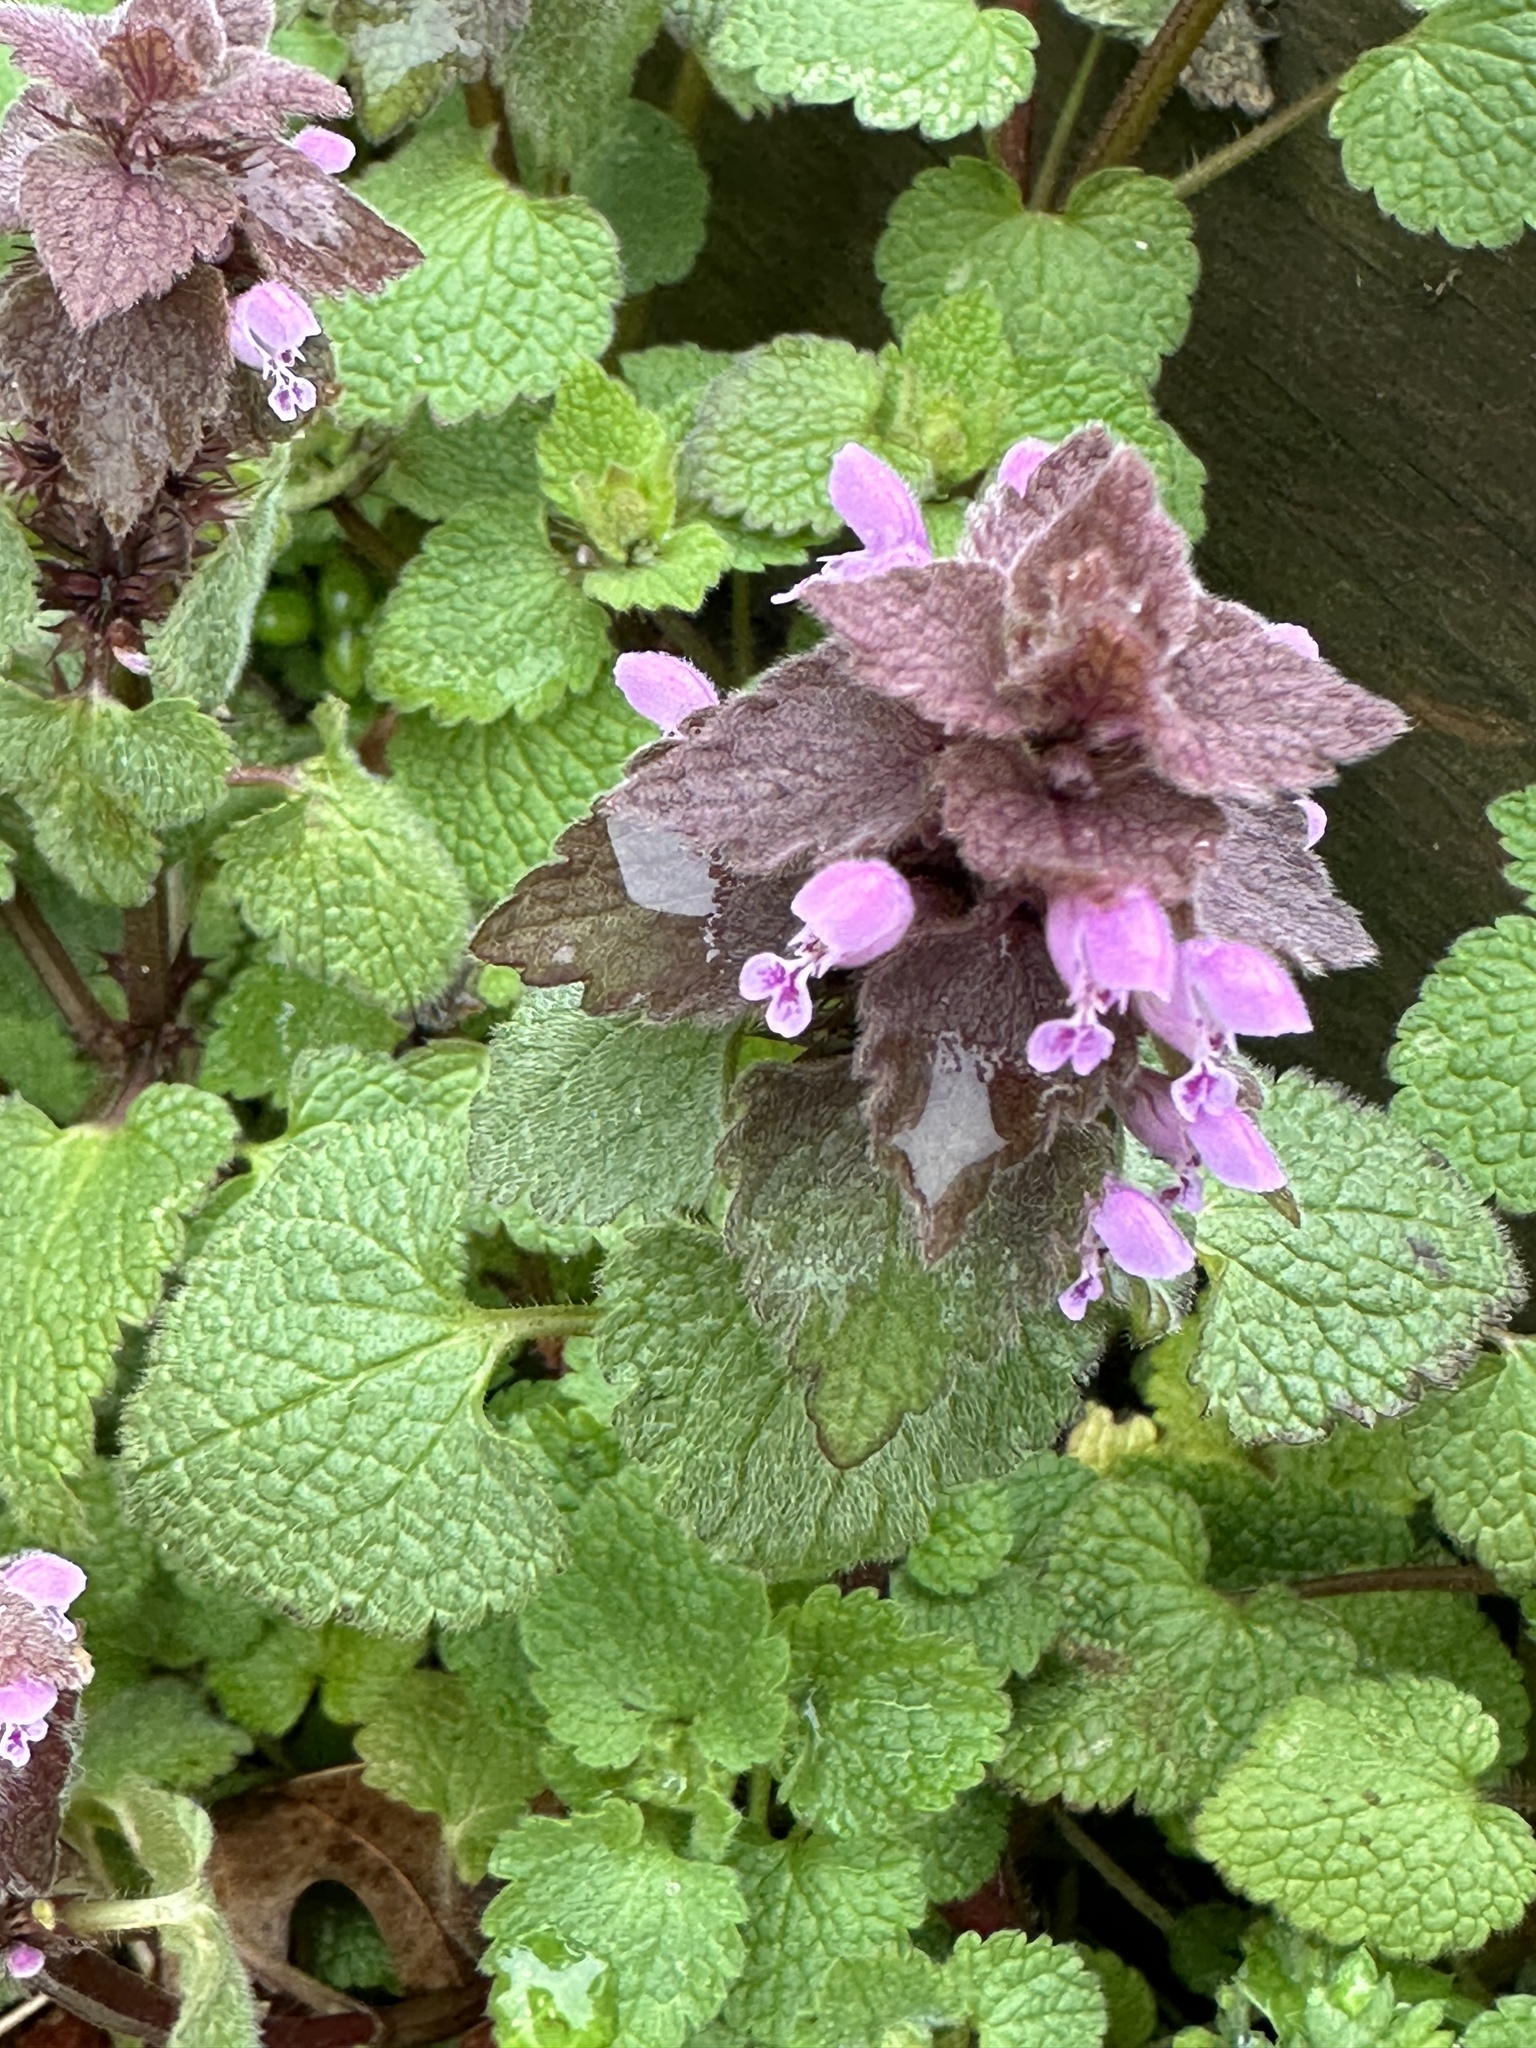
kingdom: Plantae
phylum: Tracheophyta
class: Magnoliopsida
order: Lamiales
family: Lamiaceae
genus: Lamium
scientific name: Lamium purpureum
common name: Red dead-nettle
